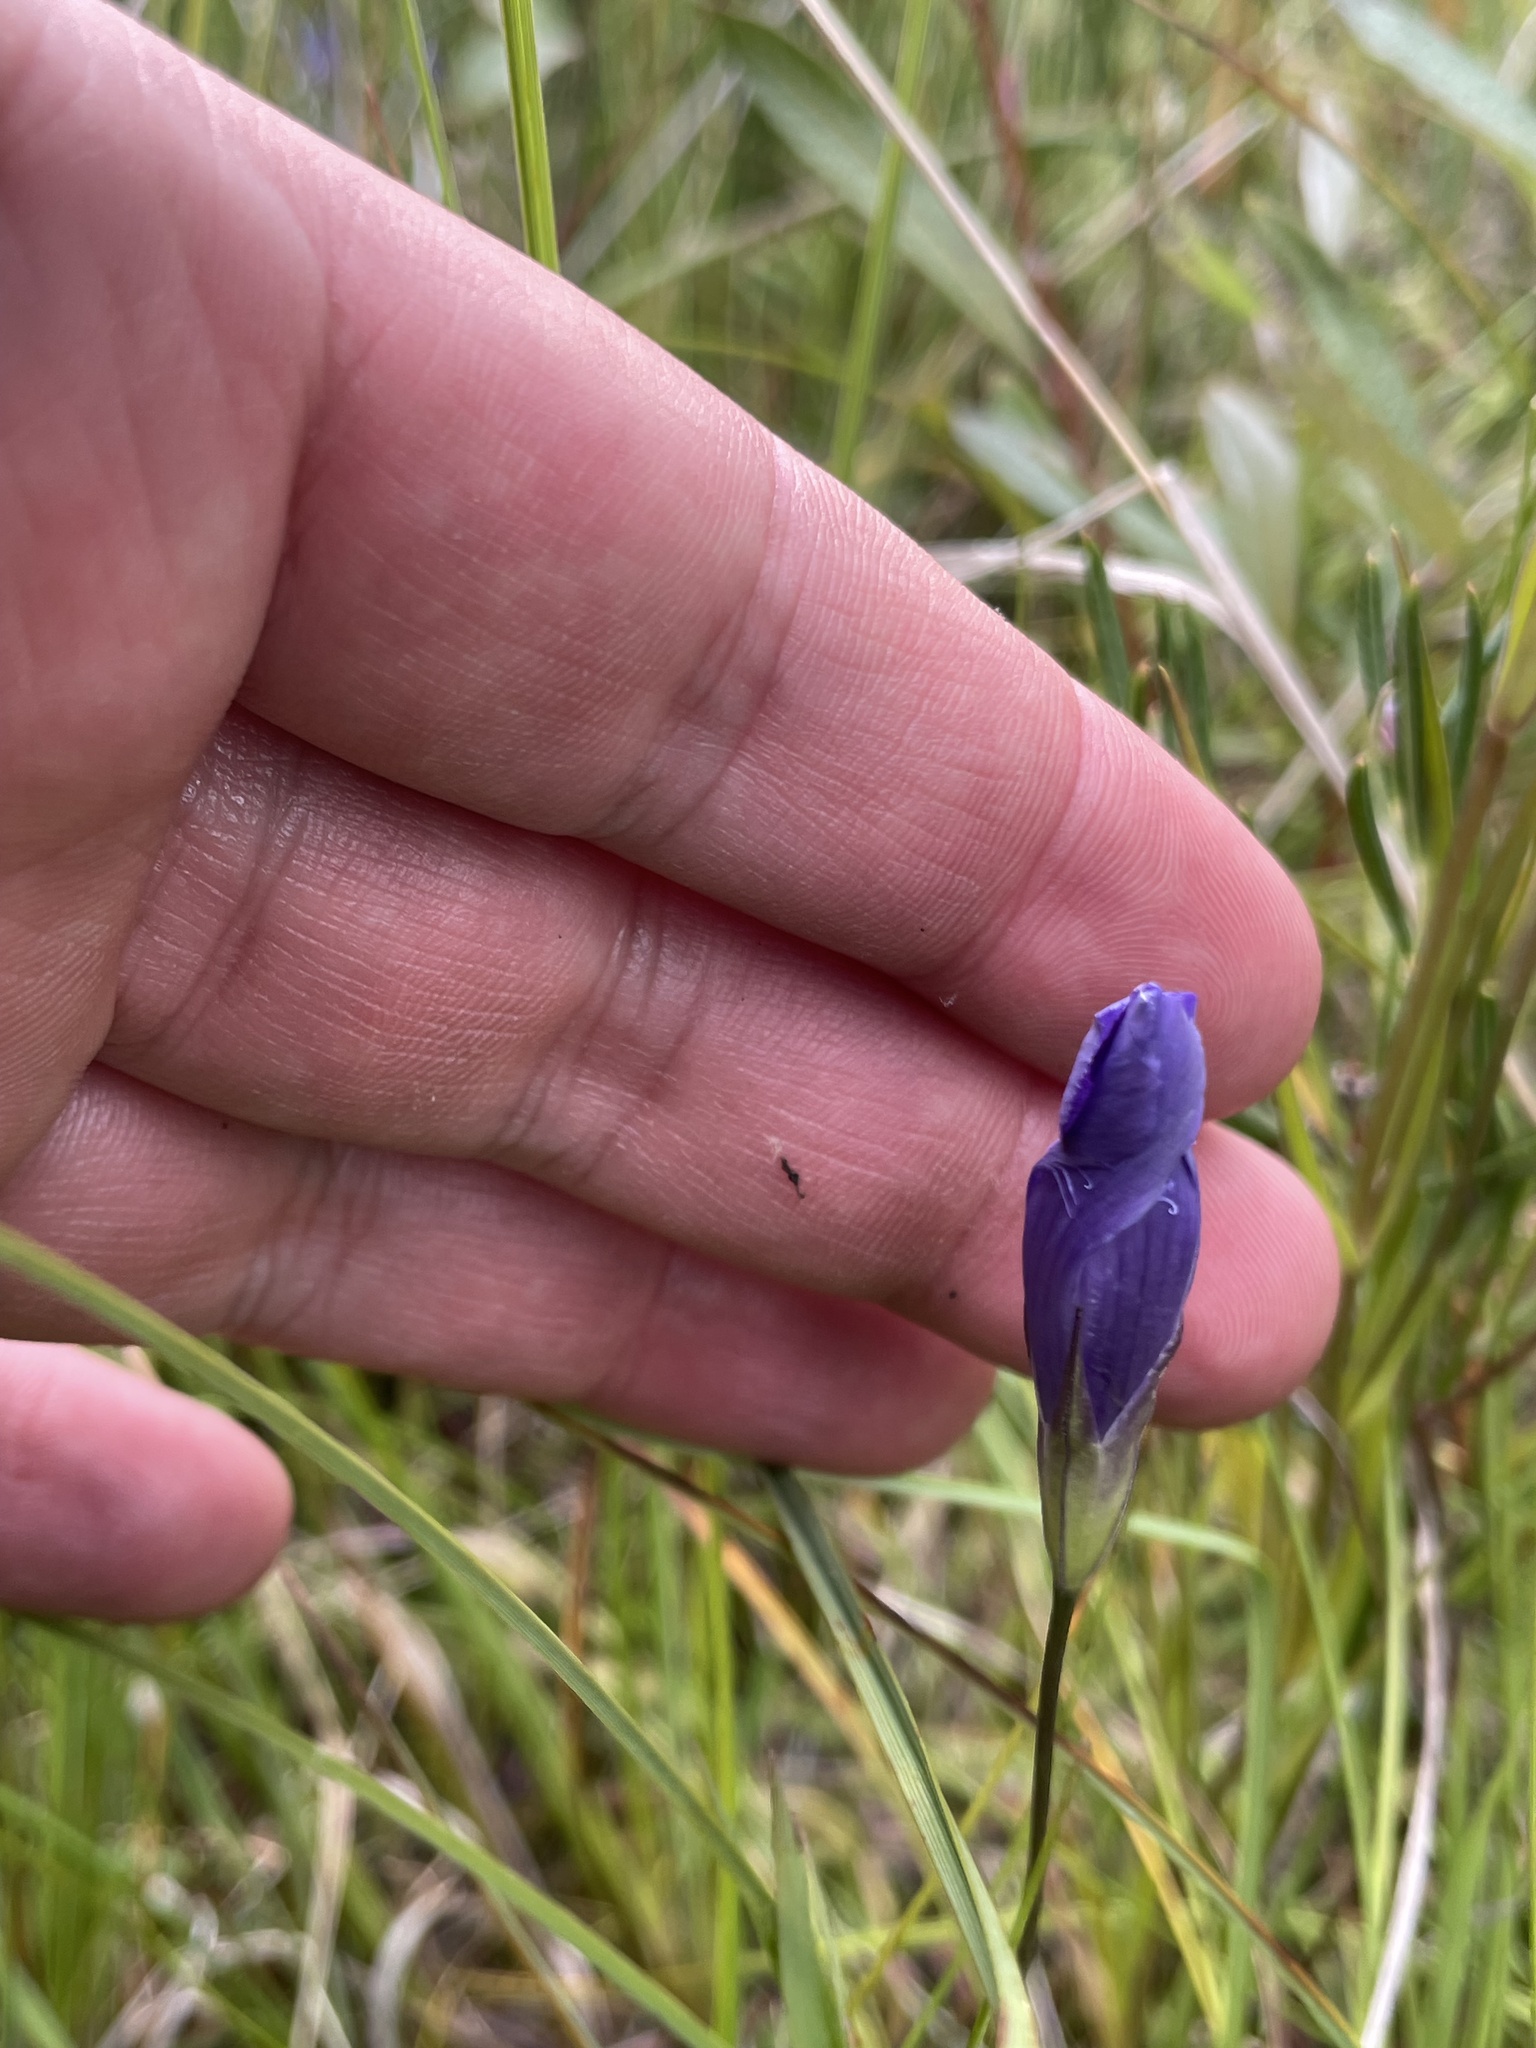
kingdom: Plantae
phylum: Tracheophyta
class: Magnoliopsida
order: Gentianales
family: Gentianaceae
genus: Gentianopsis
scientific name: Gentianopsis virgata
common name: Lesser fringed-gentian
